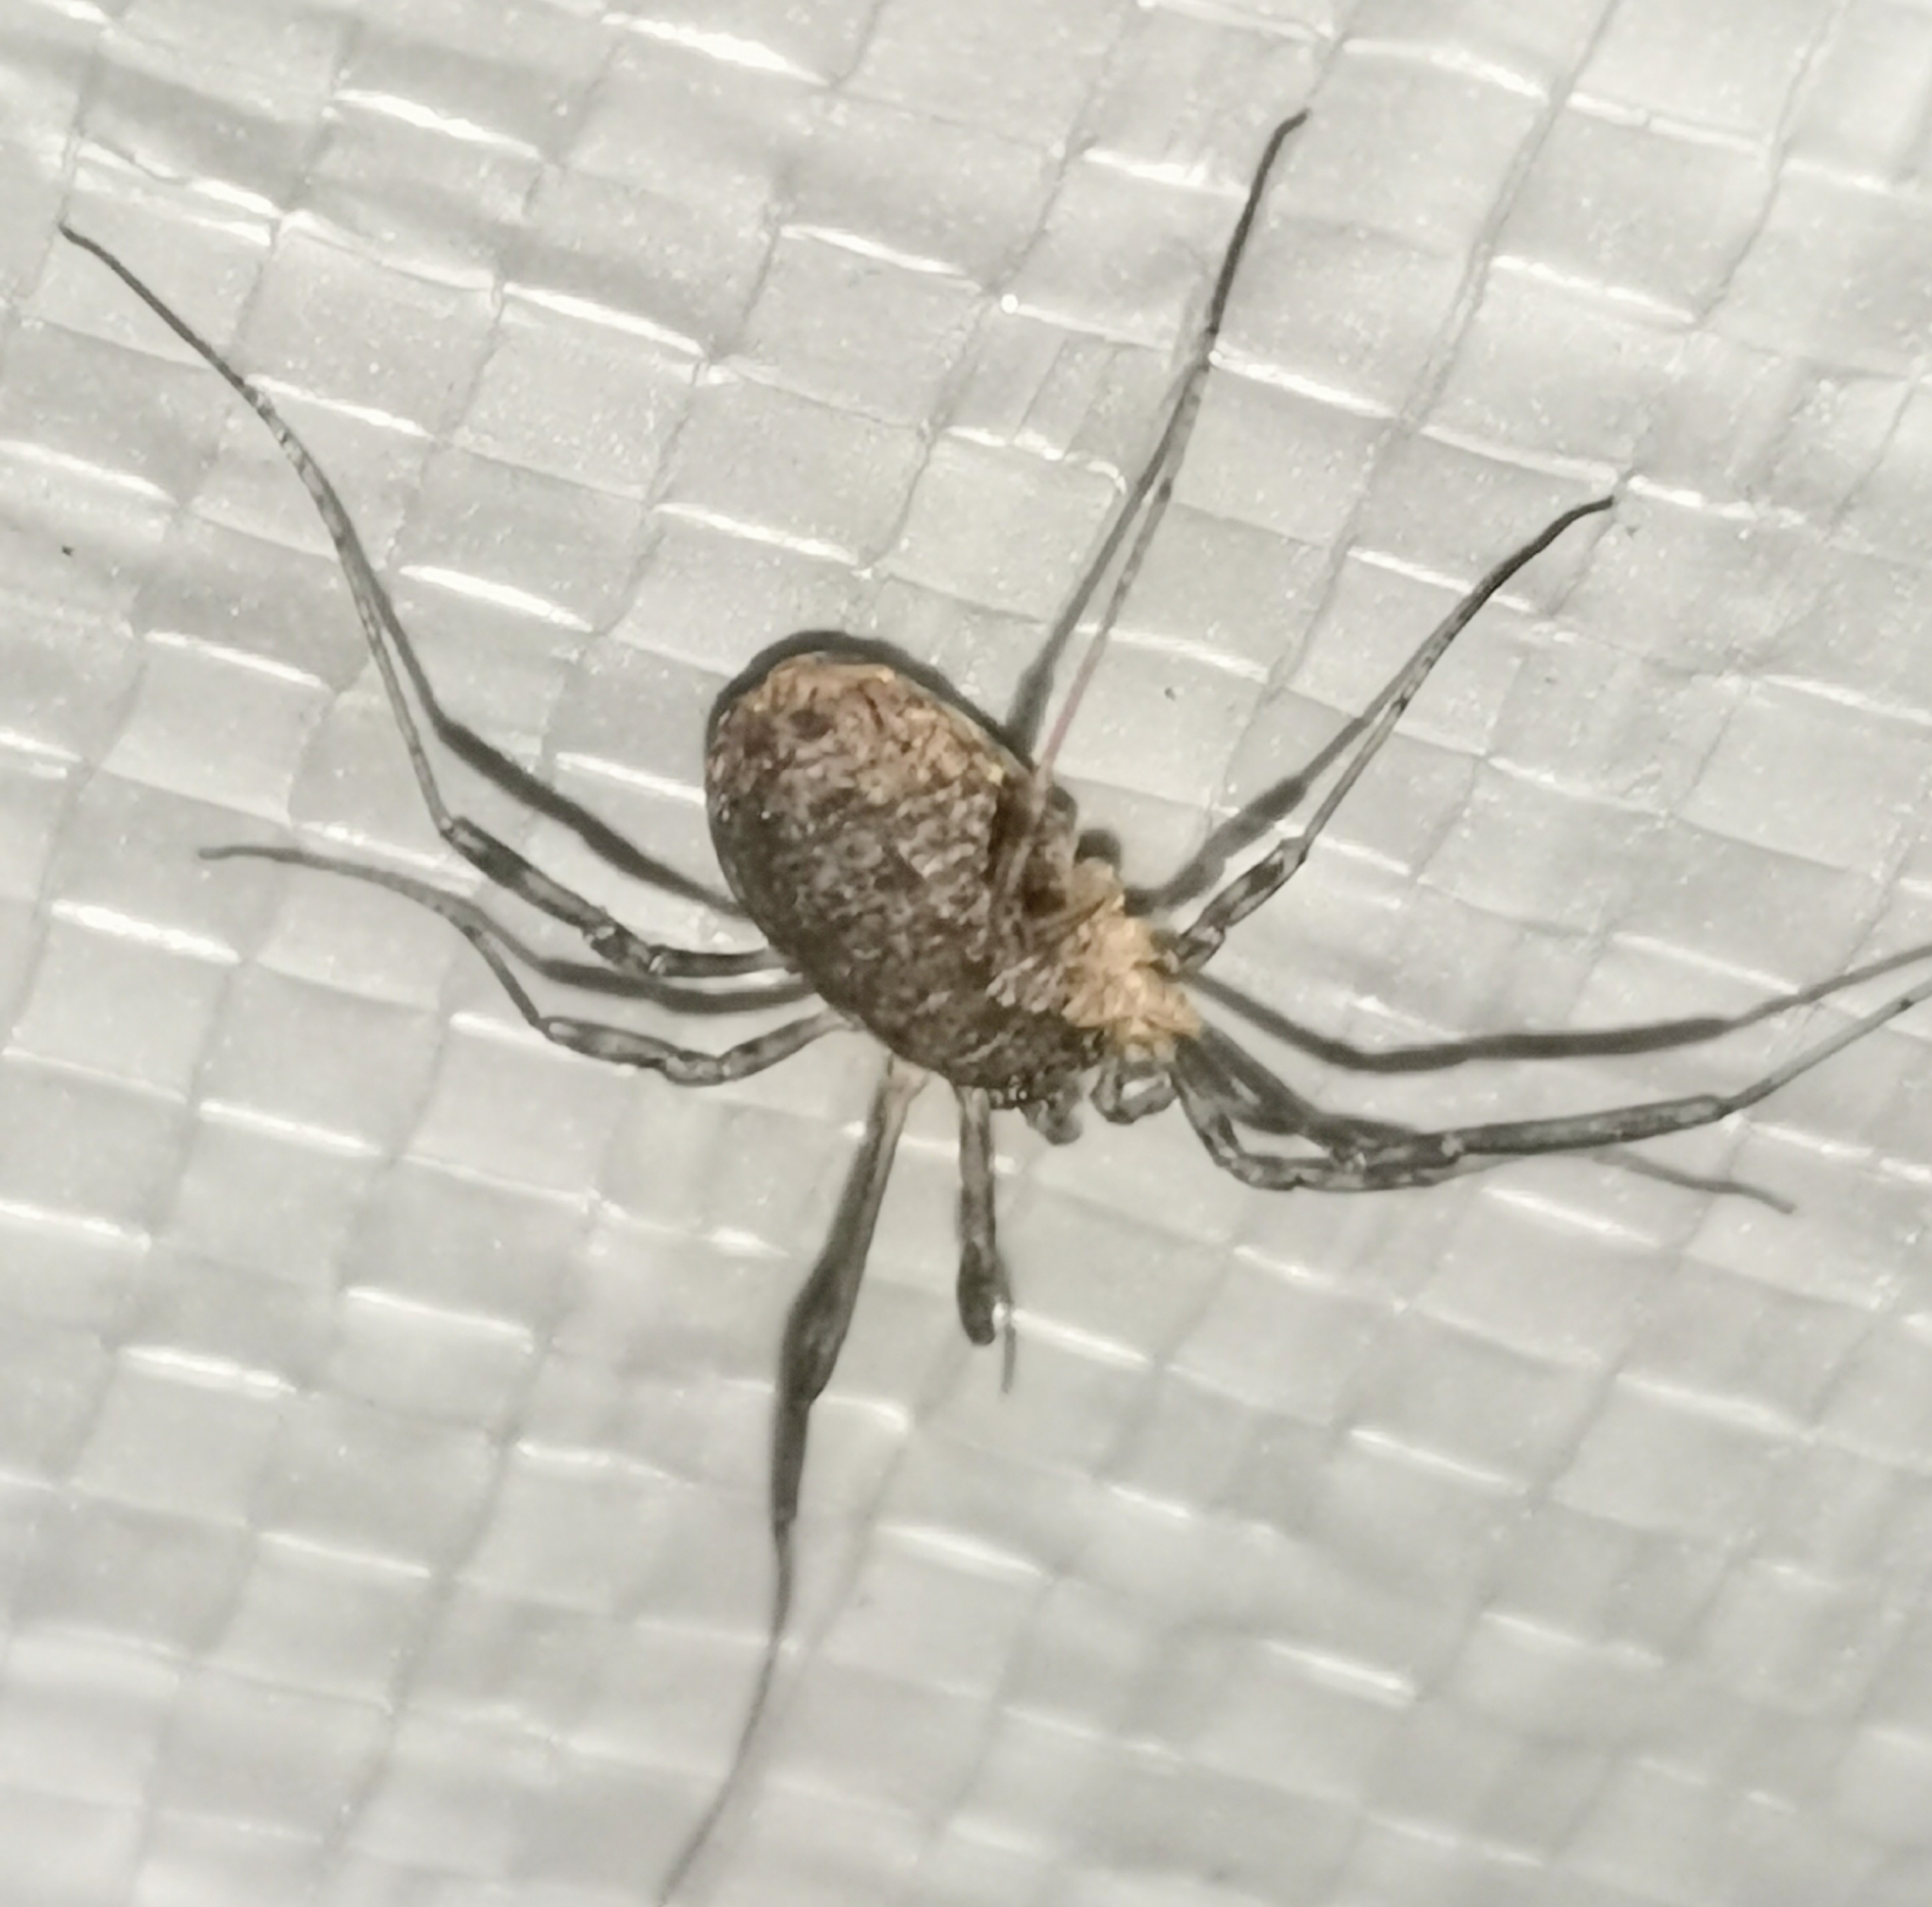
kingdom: Animalia
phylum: Arthropoda
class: Arachnida
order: Opiliones
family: Phalangiidae
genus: Oligolophus
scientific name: Oligolophus tridens
